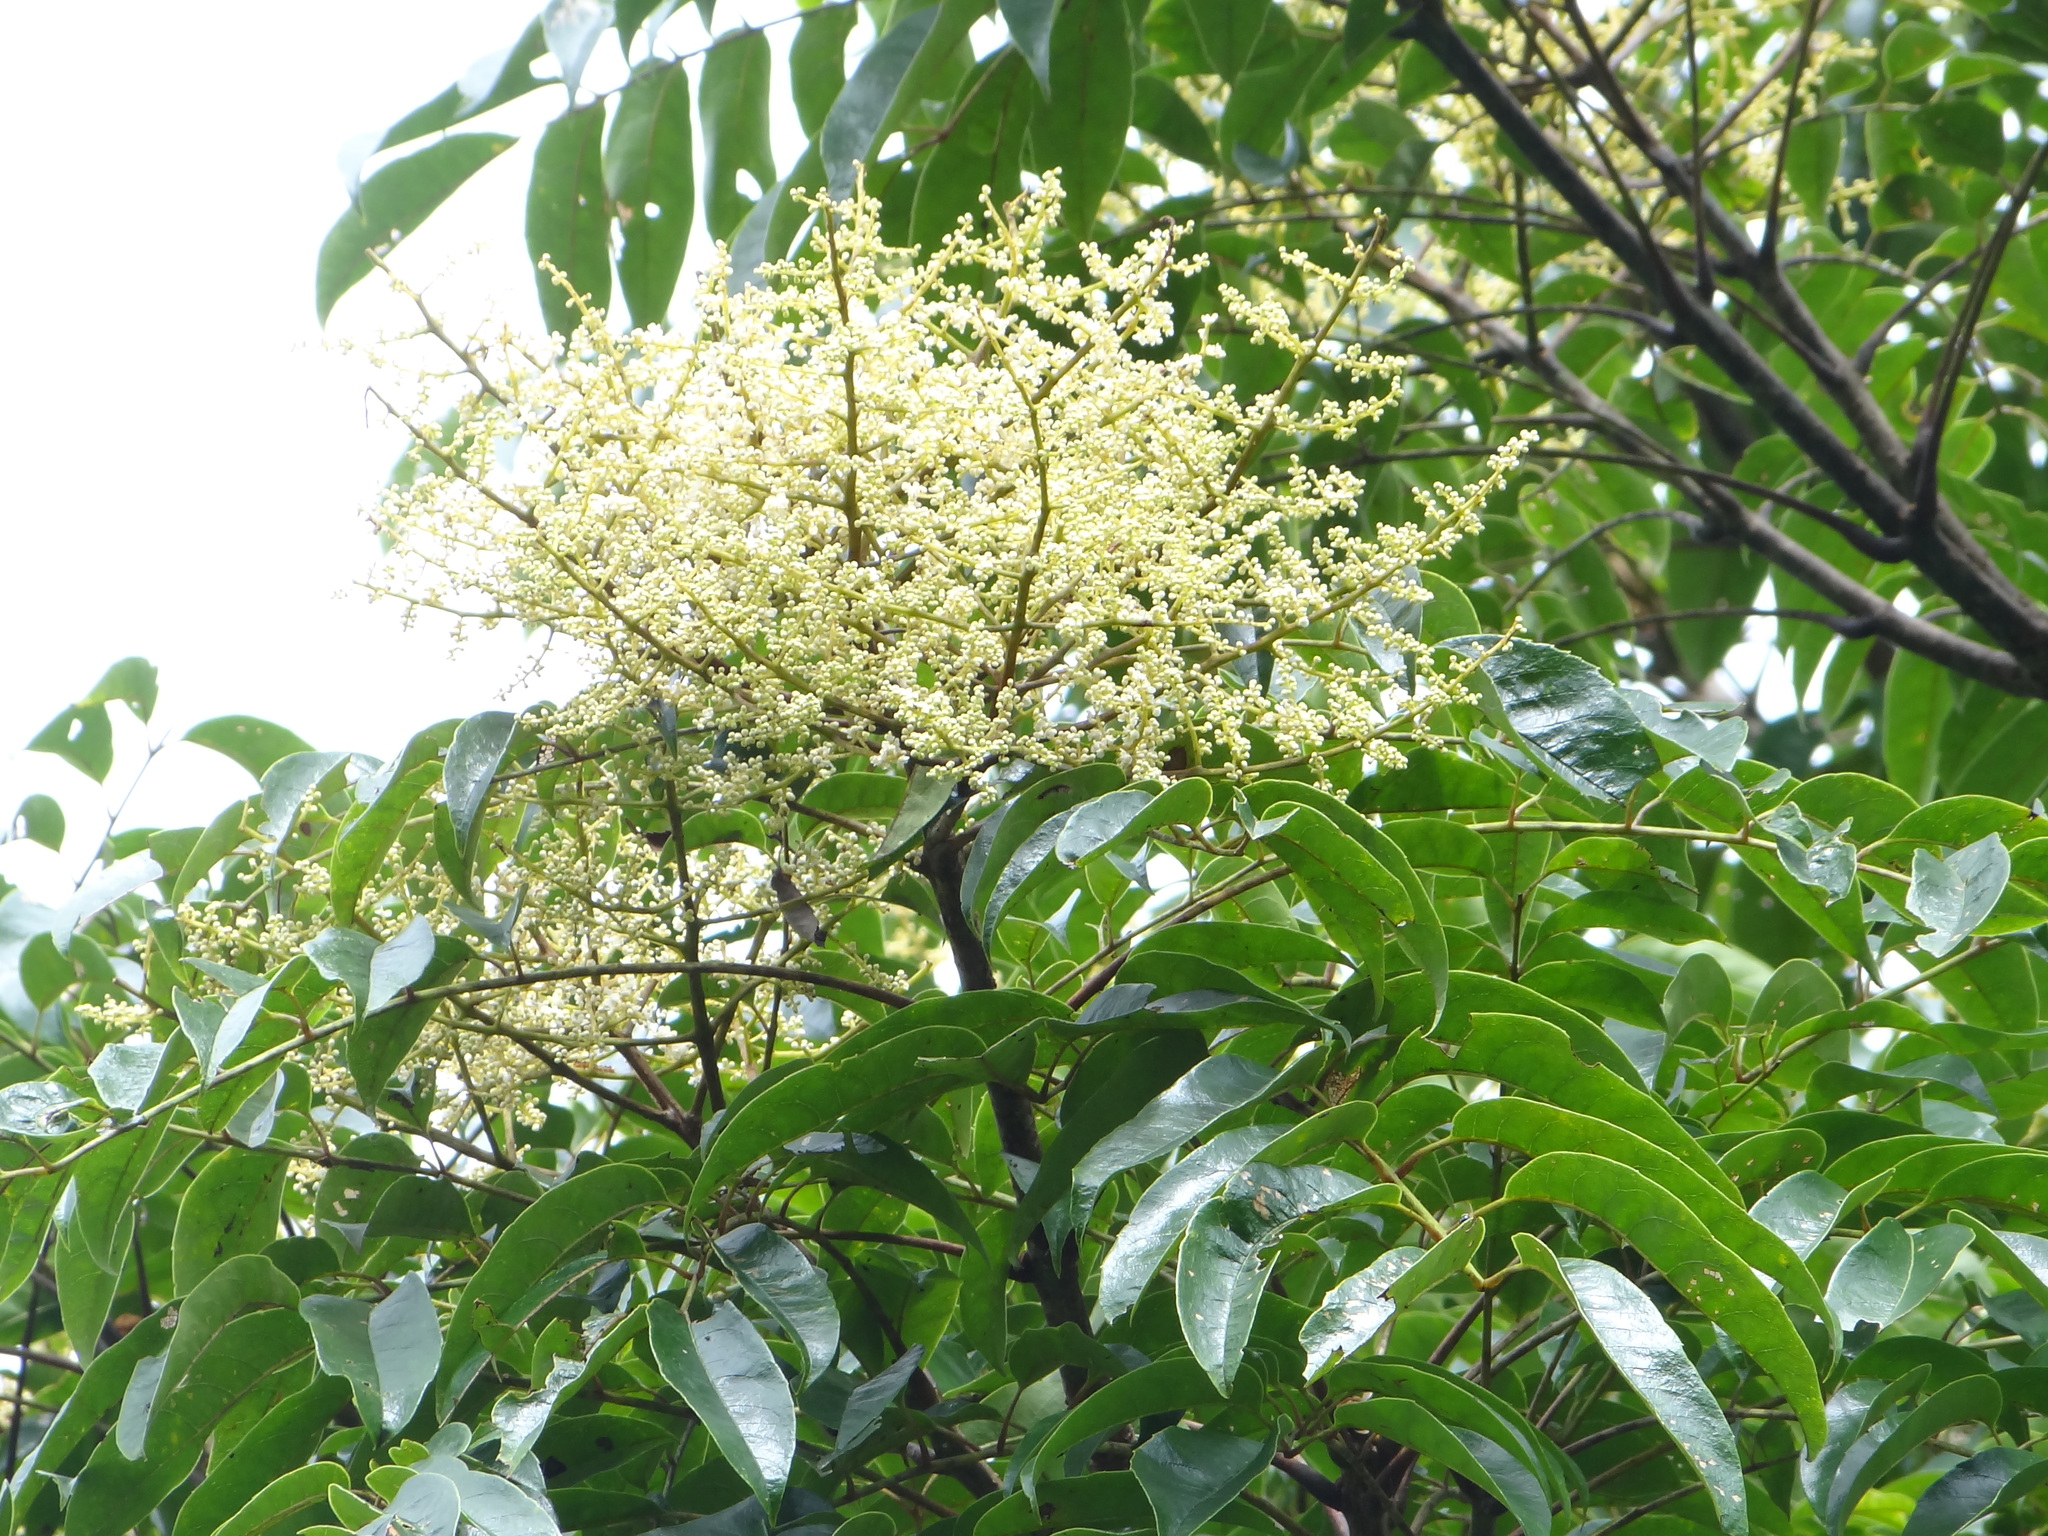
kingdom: Plantae
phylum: Tracheophyta
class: Magnoliopsida
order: Proteales
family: Sabiaceae
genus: Meliosma
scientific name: Meliosma rhoifolia
